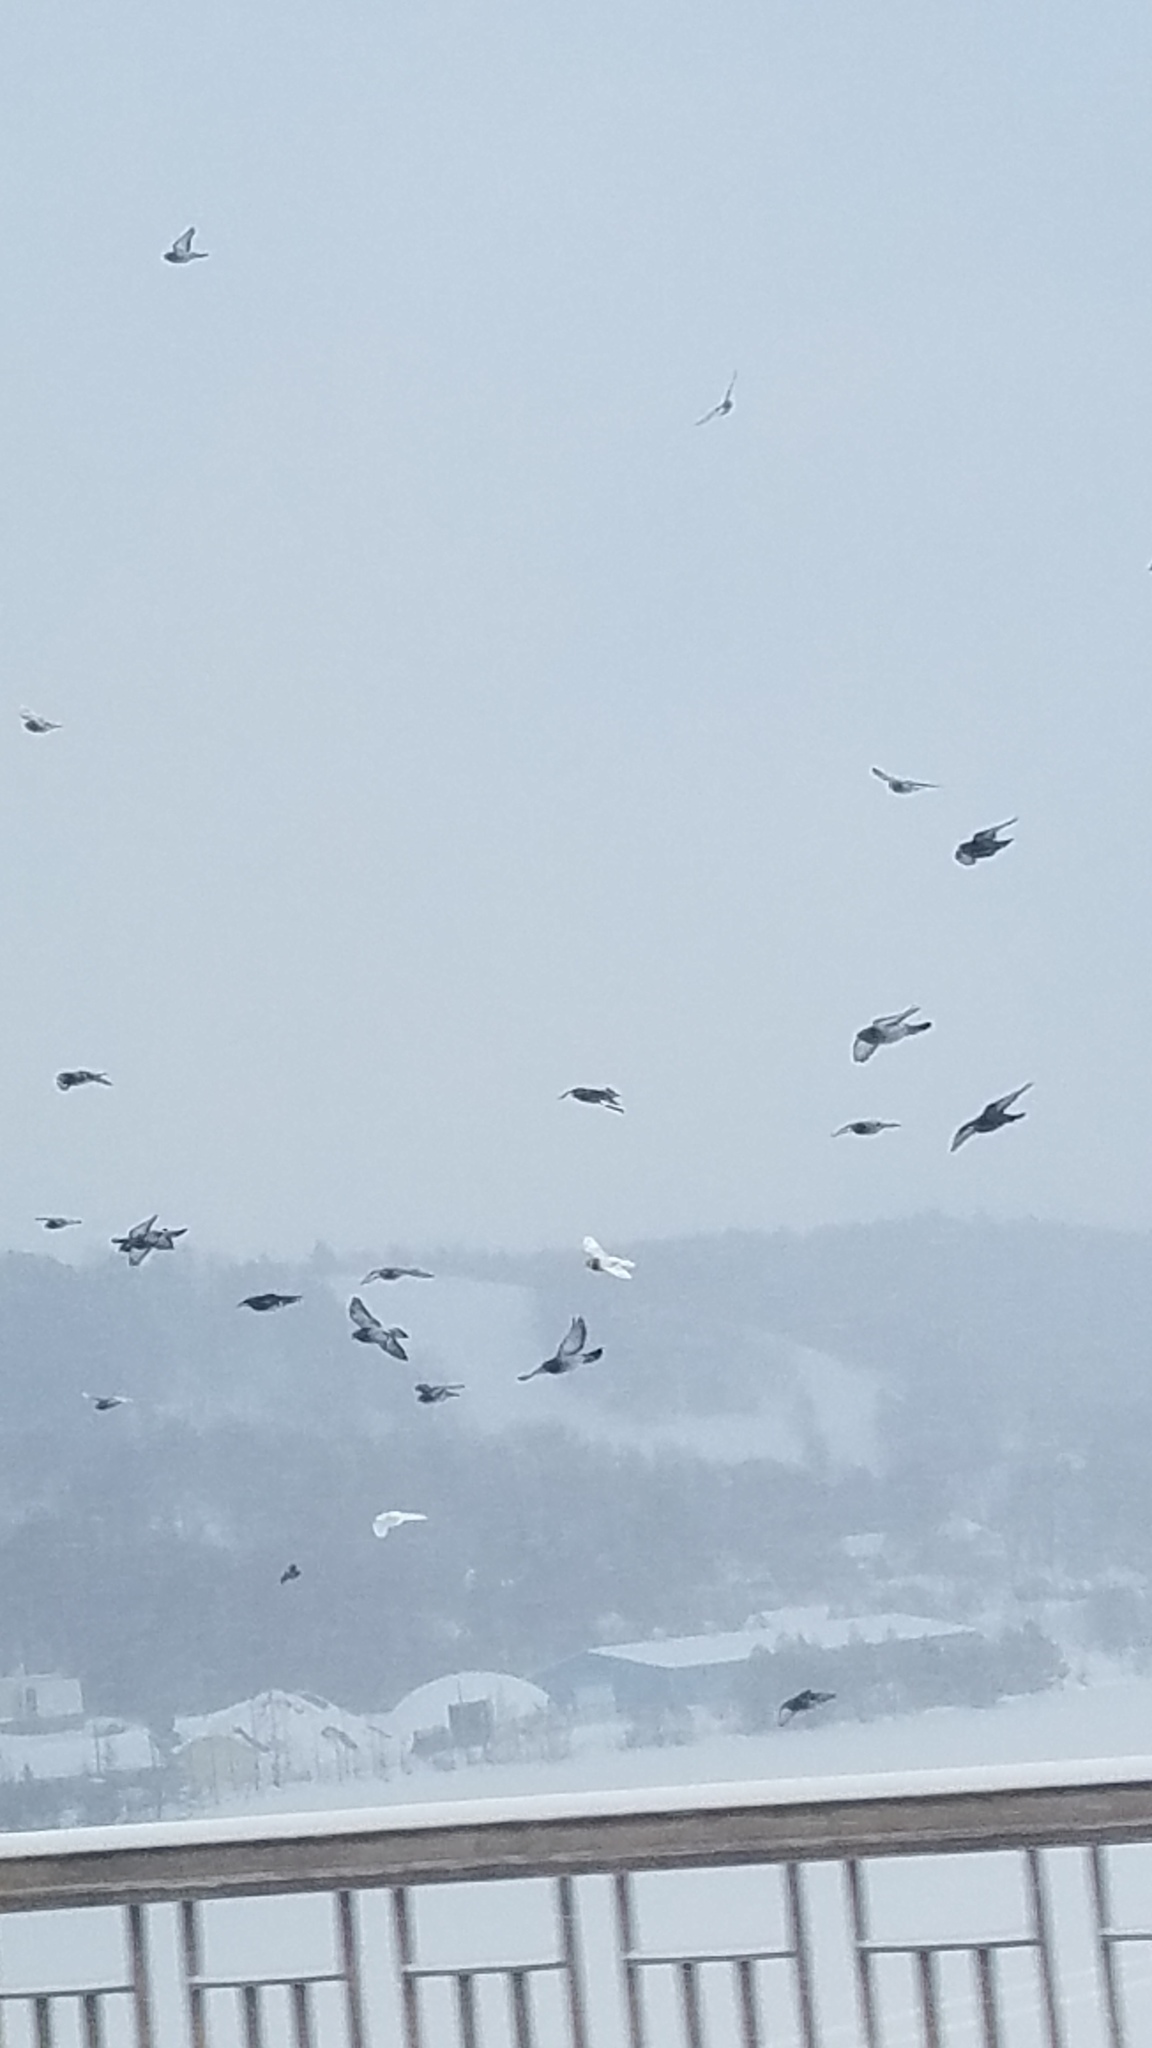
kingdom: Animalia
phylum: Chordata
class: Aves
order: Columbiformes
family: Columbidae
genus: Columba
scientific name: Columba livia
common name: Rock pigeon
